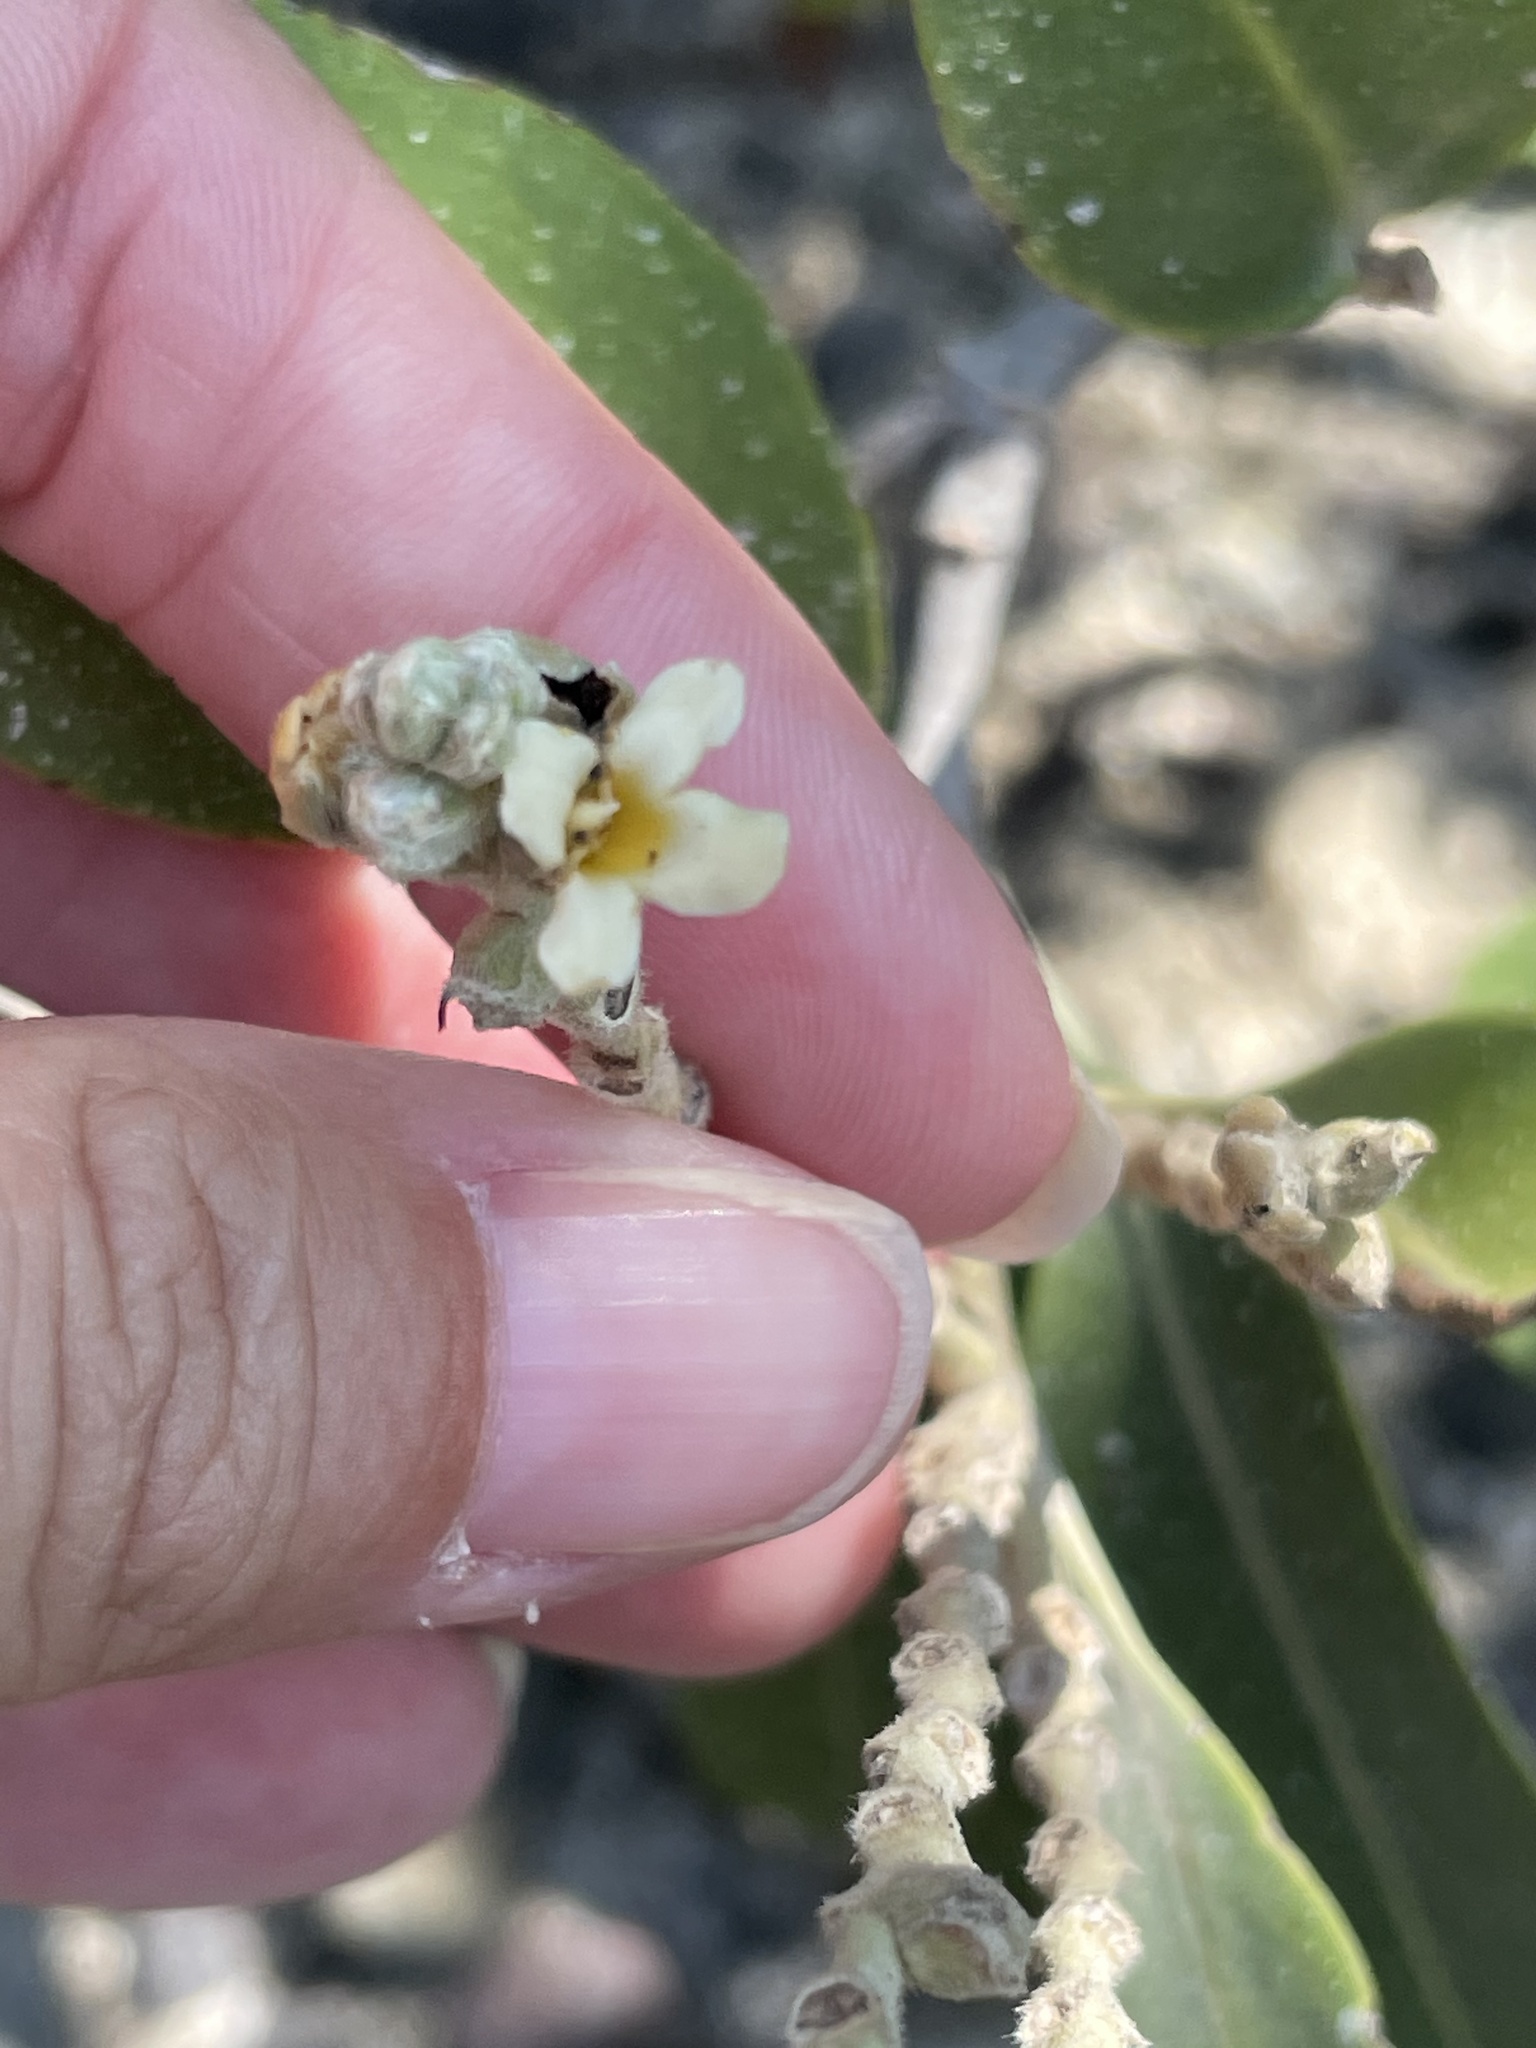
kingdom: Plantae
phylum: Tracheophyta
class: Magnoliopsida
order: Lamiales
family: Acanthaceae
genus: Avicennia
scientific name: Avicennia germinans
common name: Black mangrove
